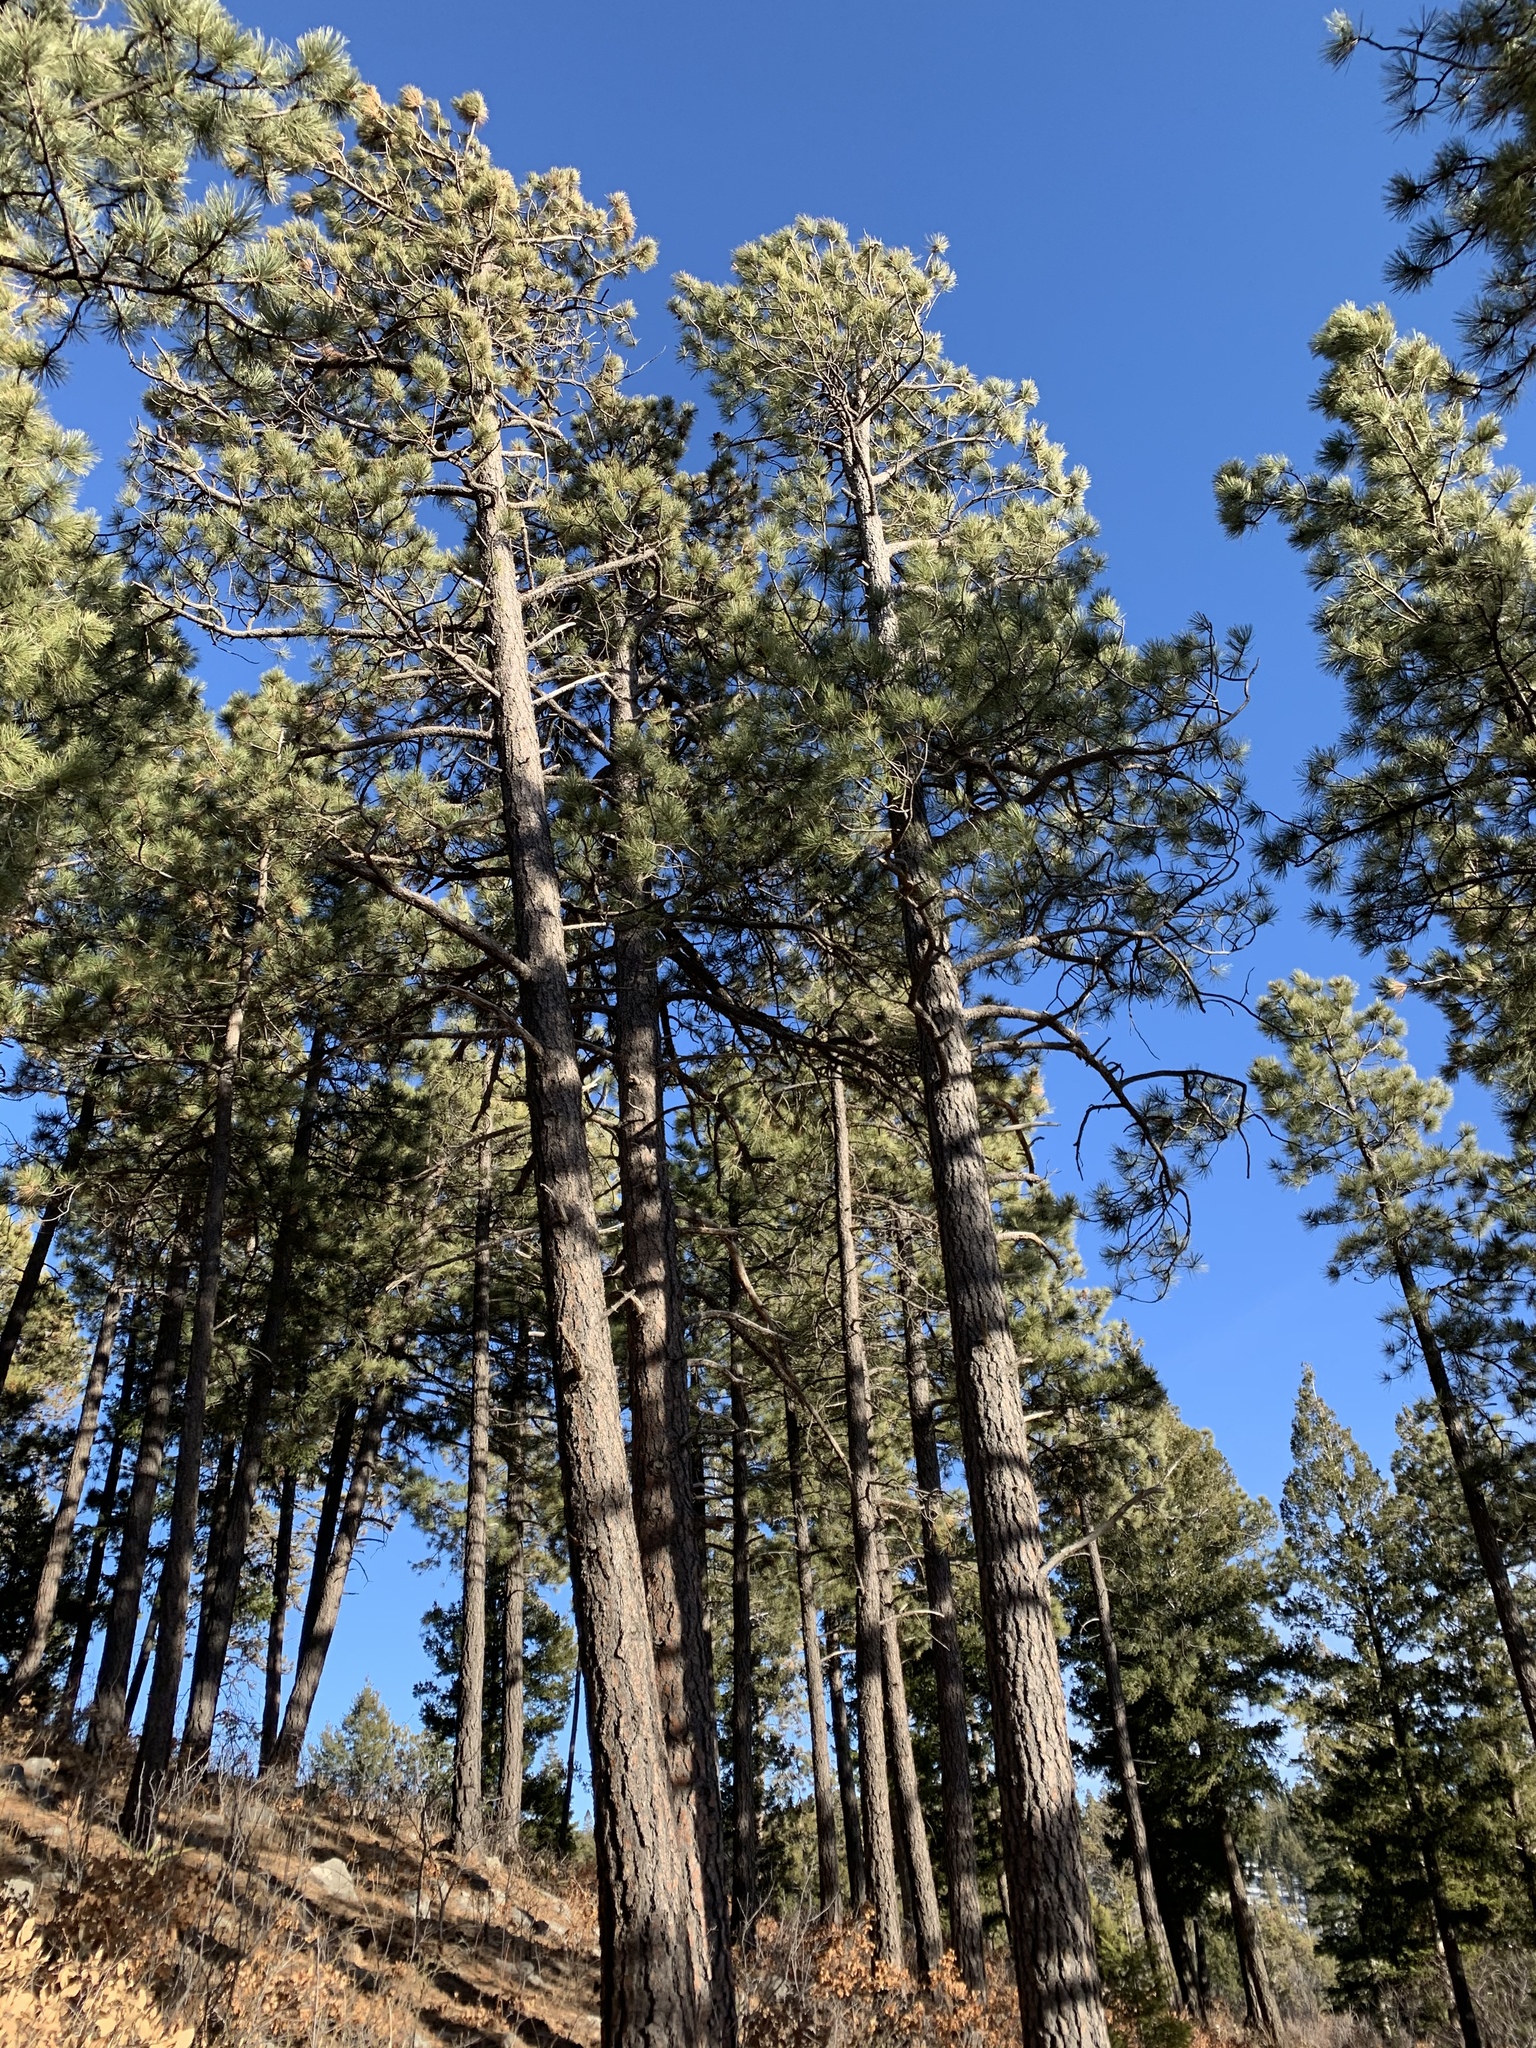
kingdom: Plantae
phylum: Tracheophyta
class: Pinopsida
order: Pinales
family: Pinaceae
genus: Pinus
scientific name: Pinus ponderosa
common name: Western yellow-pine
